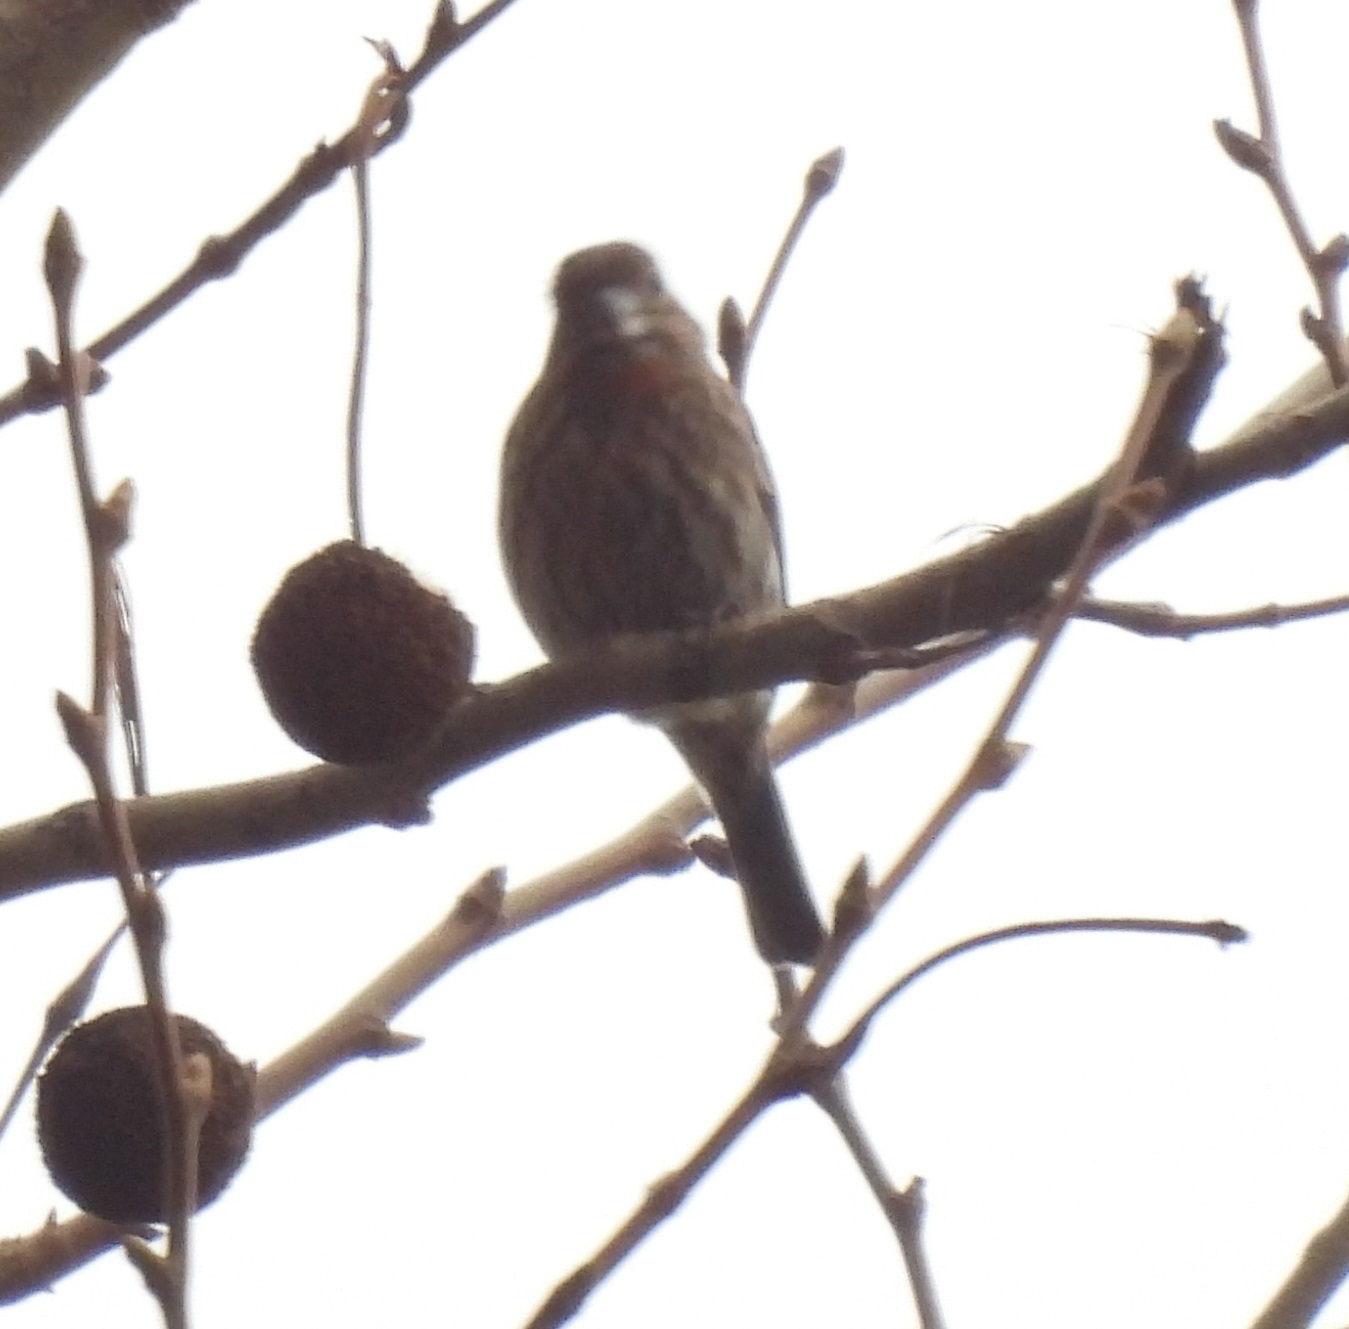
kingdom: Animalia
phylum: Chordata
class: Aves
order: Passeriformes
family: Fringillidae
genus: Haemorhous
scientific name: Haemorhous mexicanus
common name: House finch
